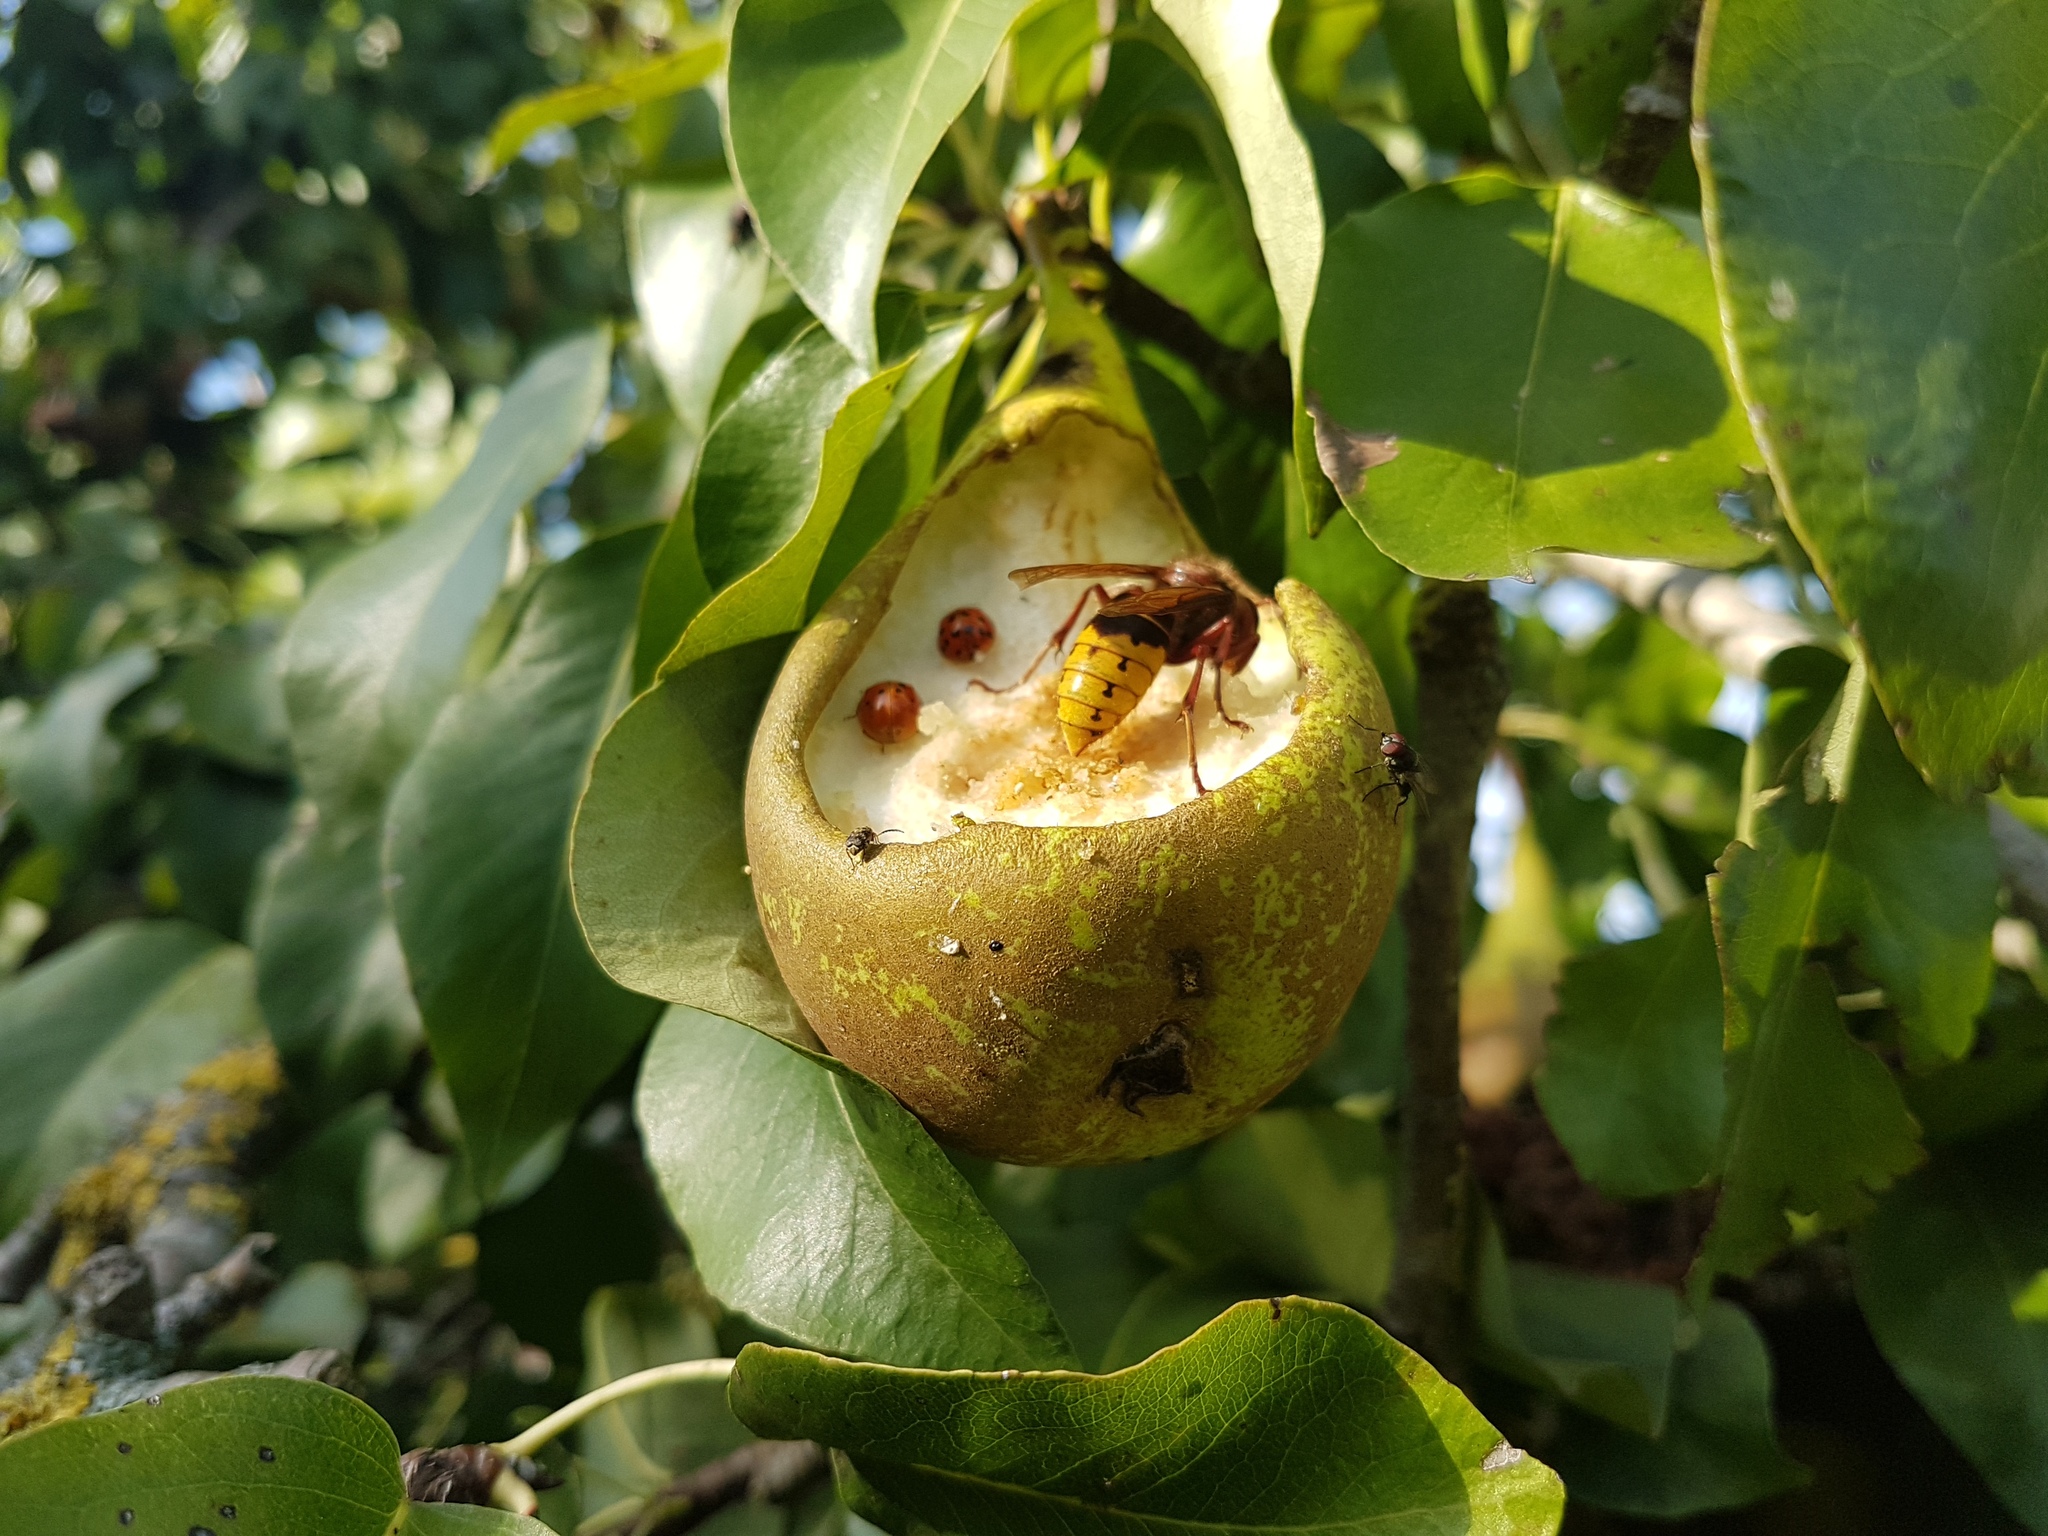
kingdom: Animalia
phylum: Arthropoda
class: Insecta
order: Hymenoptera
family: Vespidae
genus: Vespa
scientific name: Vespa crabro
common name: Hornet
